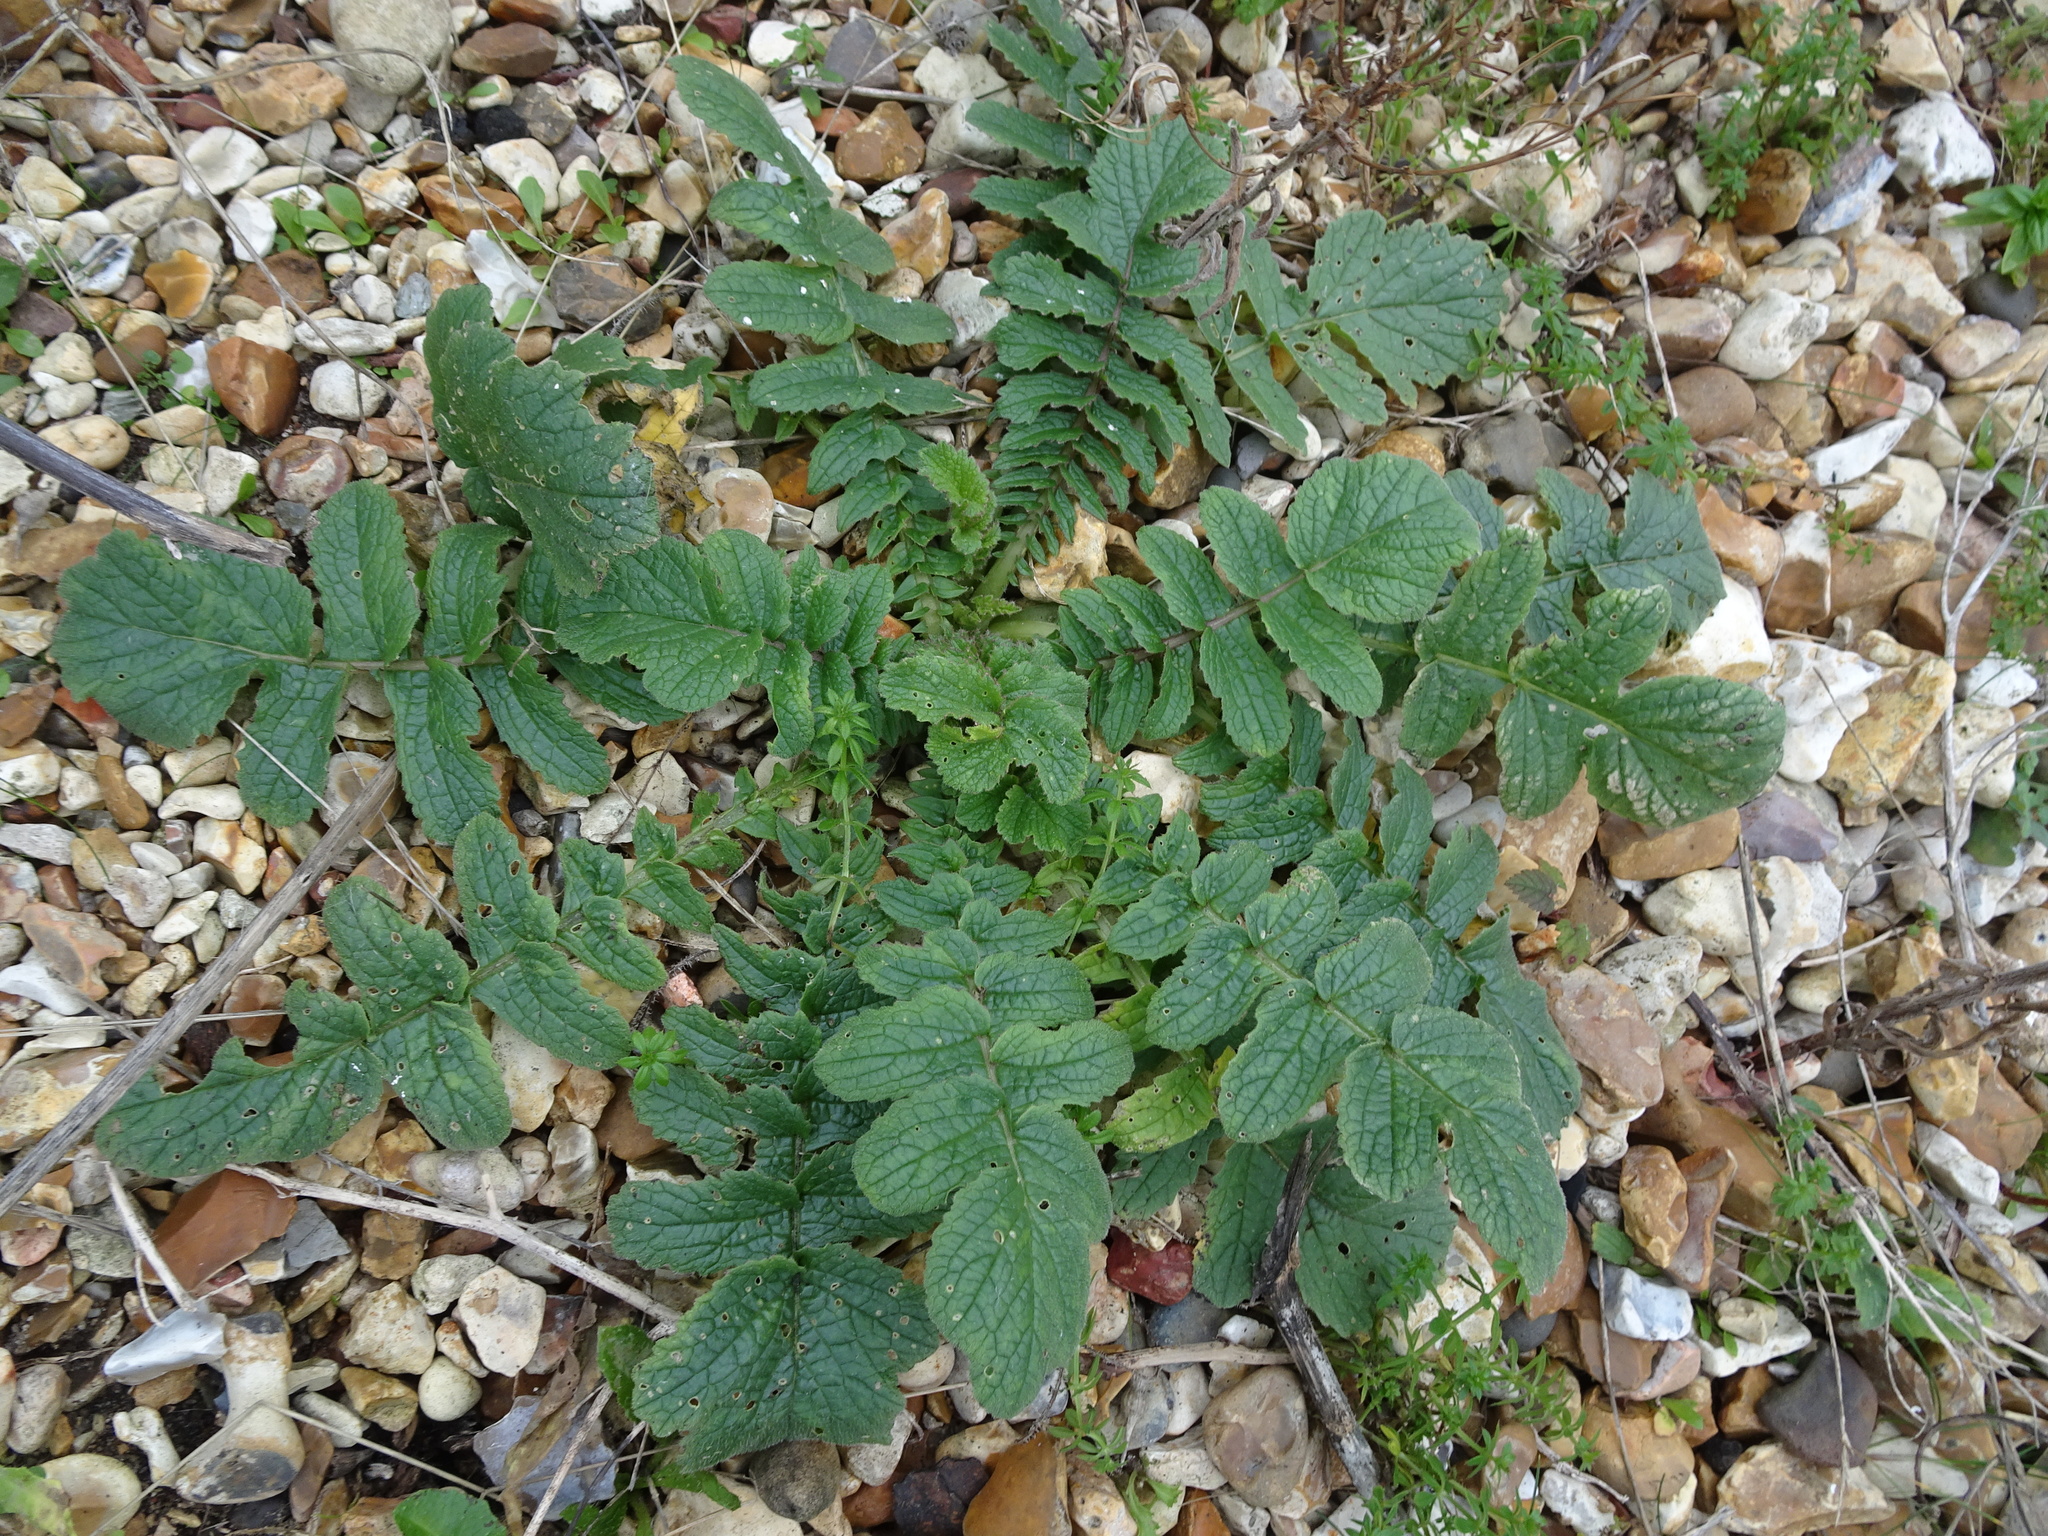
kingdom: Plantae
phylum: Tracheophyta
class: Magnoliopsida
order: Brassicales
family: Brassicaceae
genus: Raphanus
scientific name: Raphanus raphanistrum
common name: Wild radish
